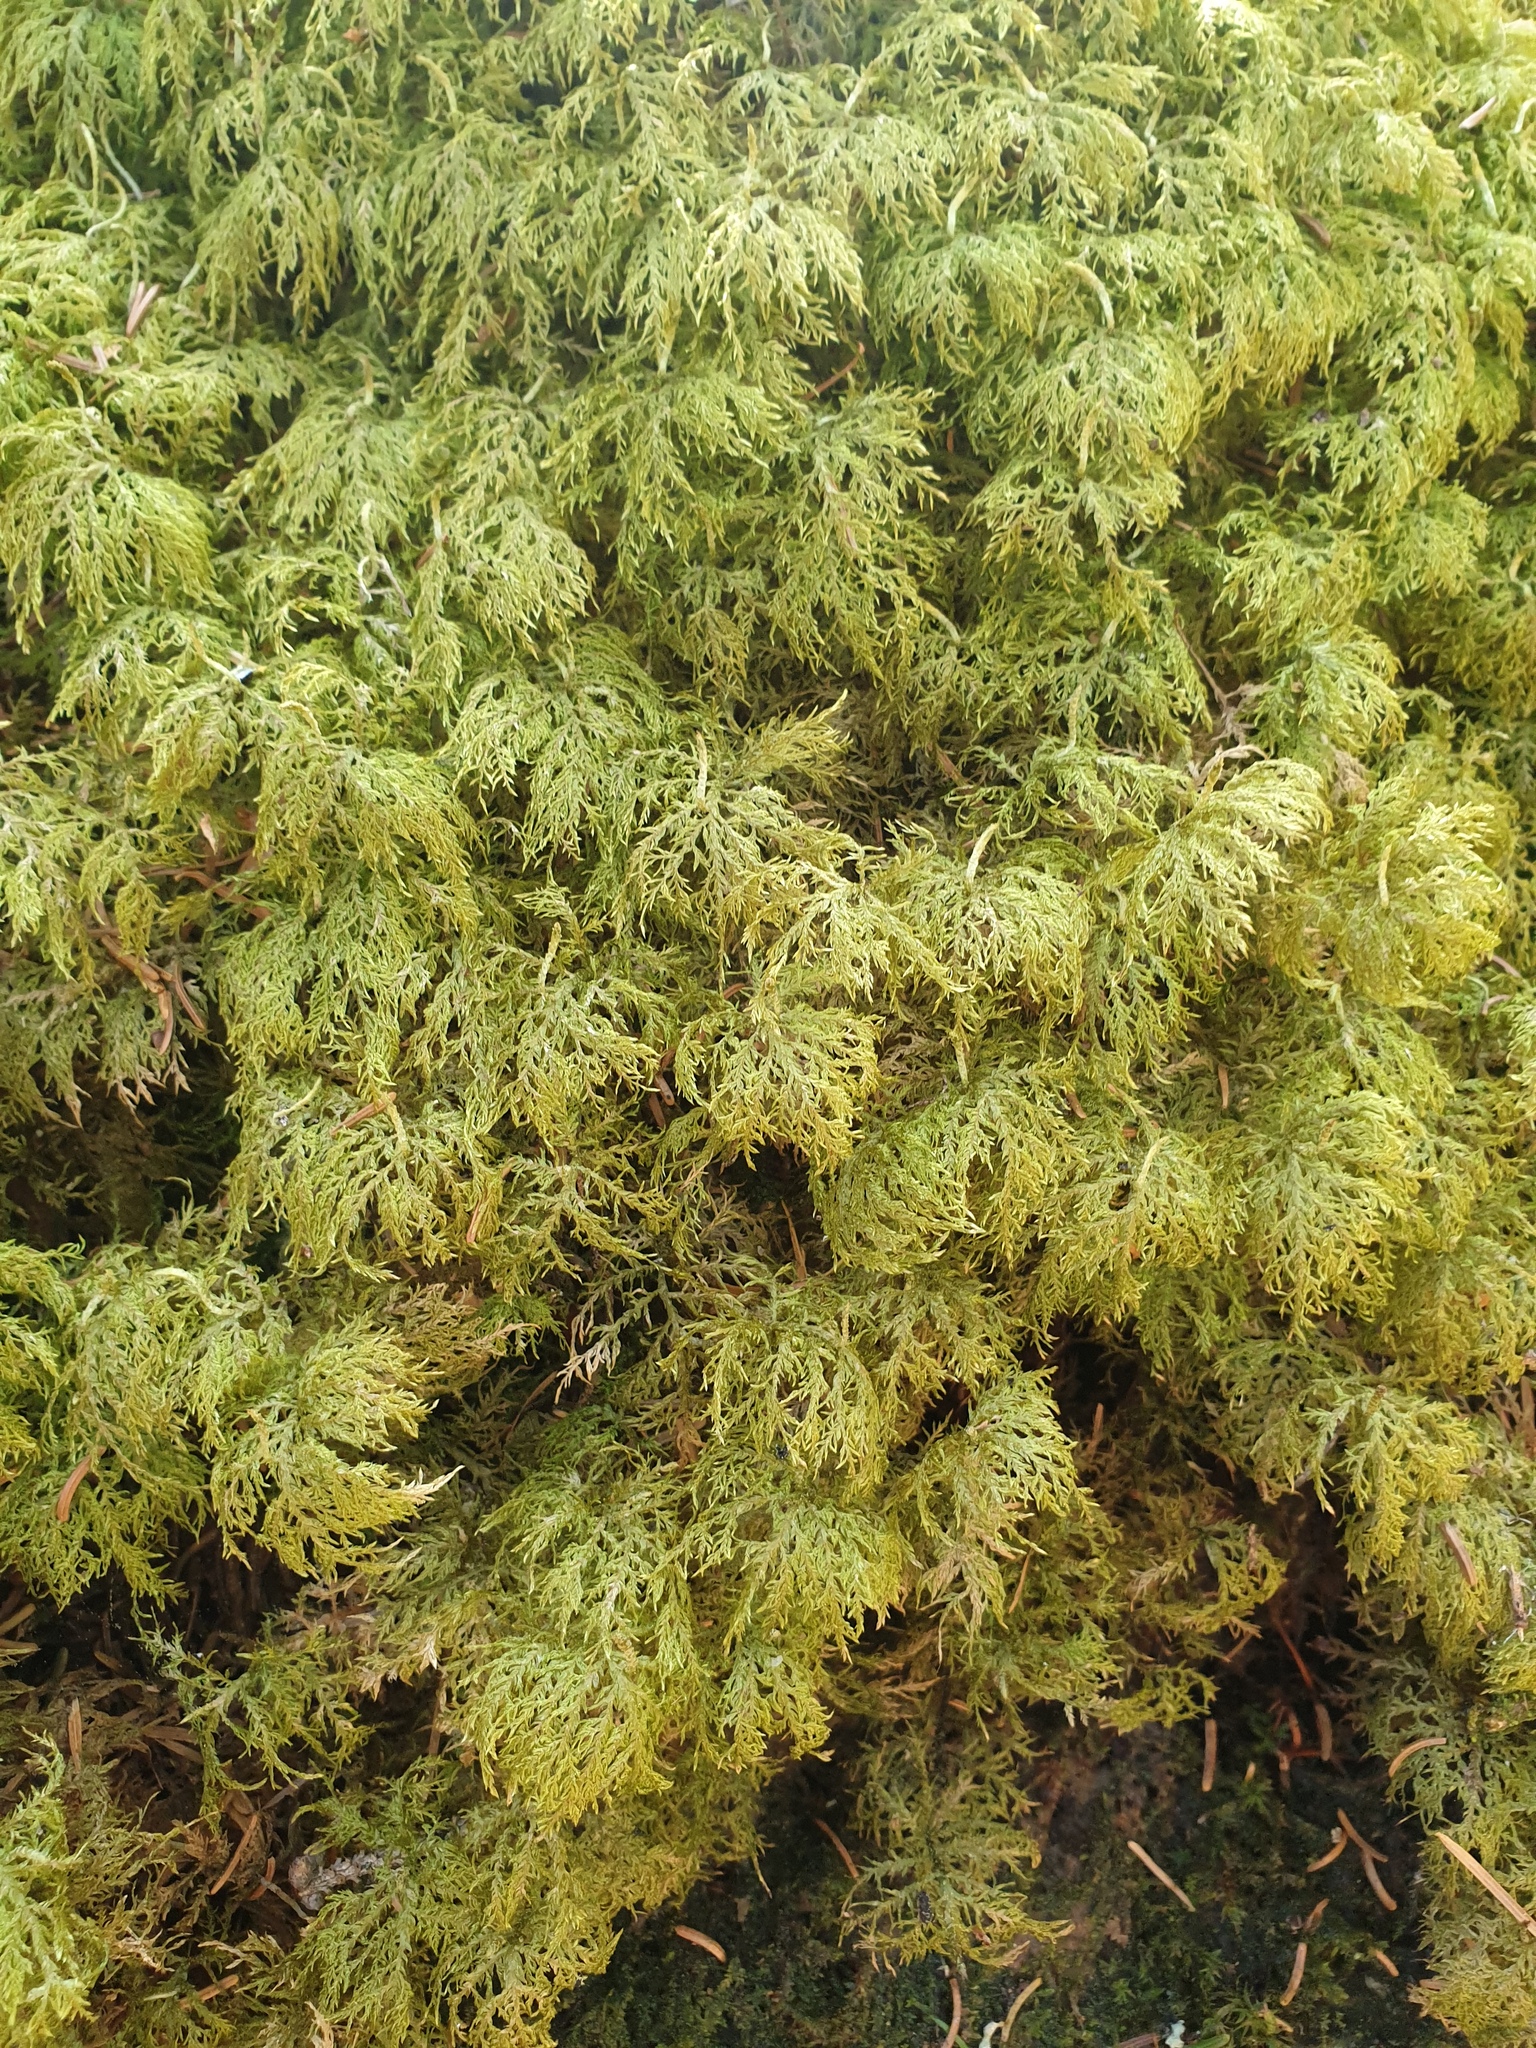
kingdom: Plantae
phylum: Bryophyta
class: Bryopsida
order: Hypnales
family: Hylocomiaceae
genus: Hylocomium
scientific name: Hylocomium splendens
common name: Stairstep moss
